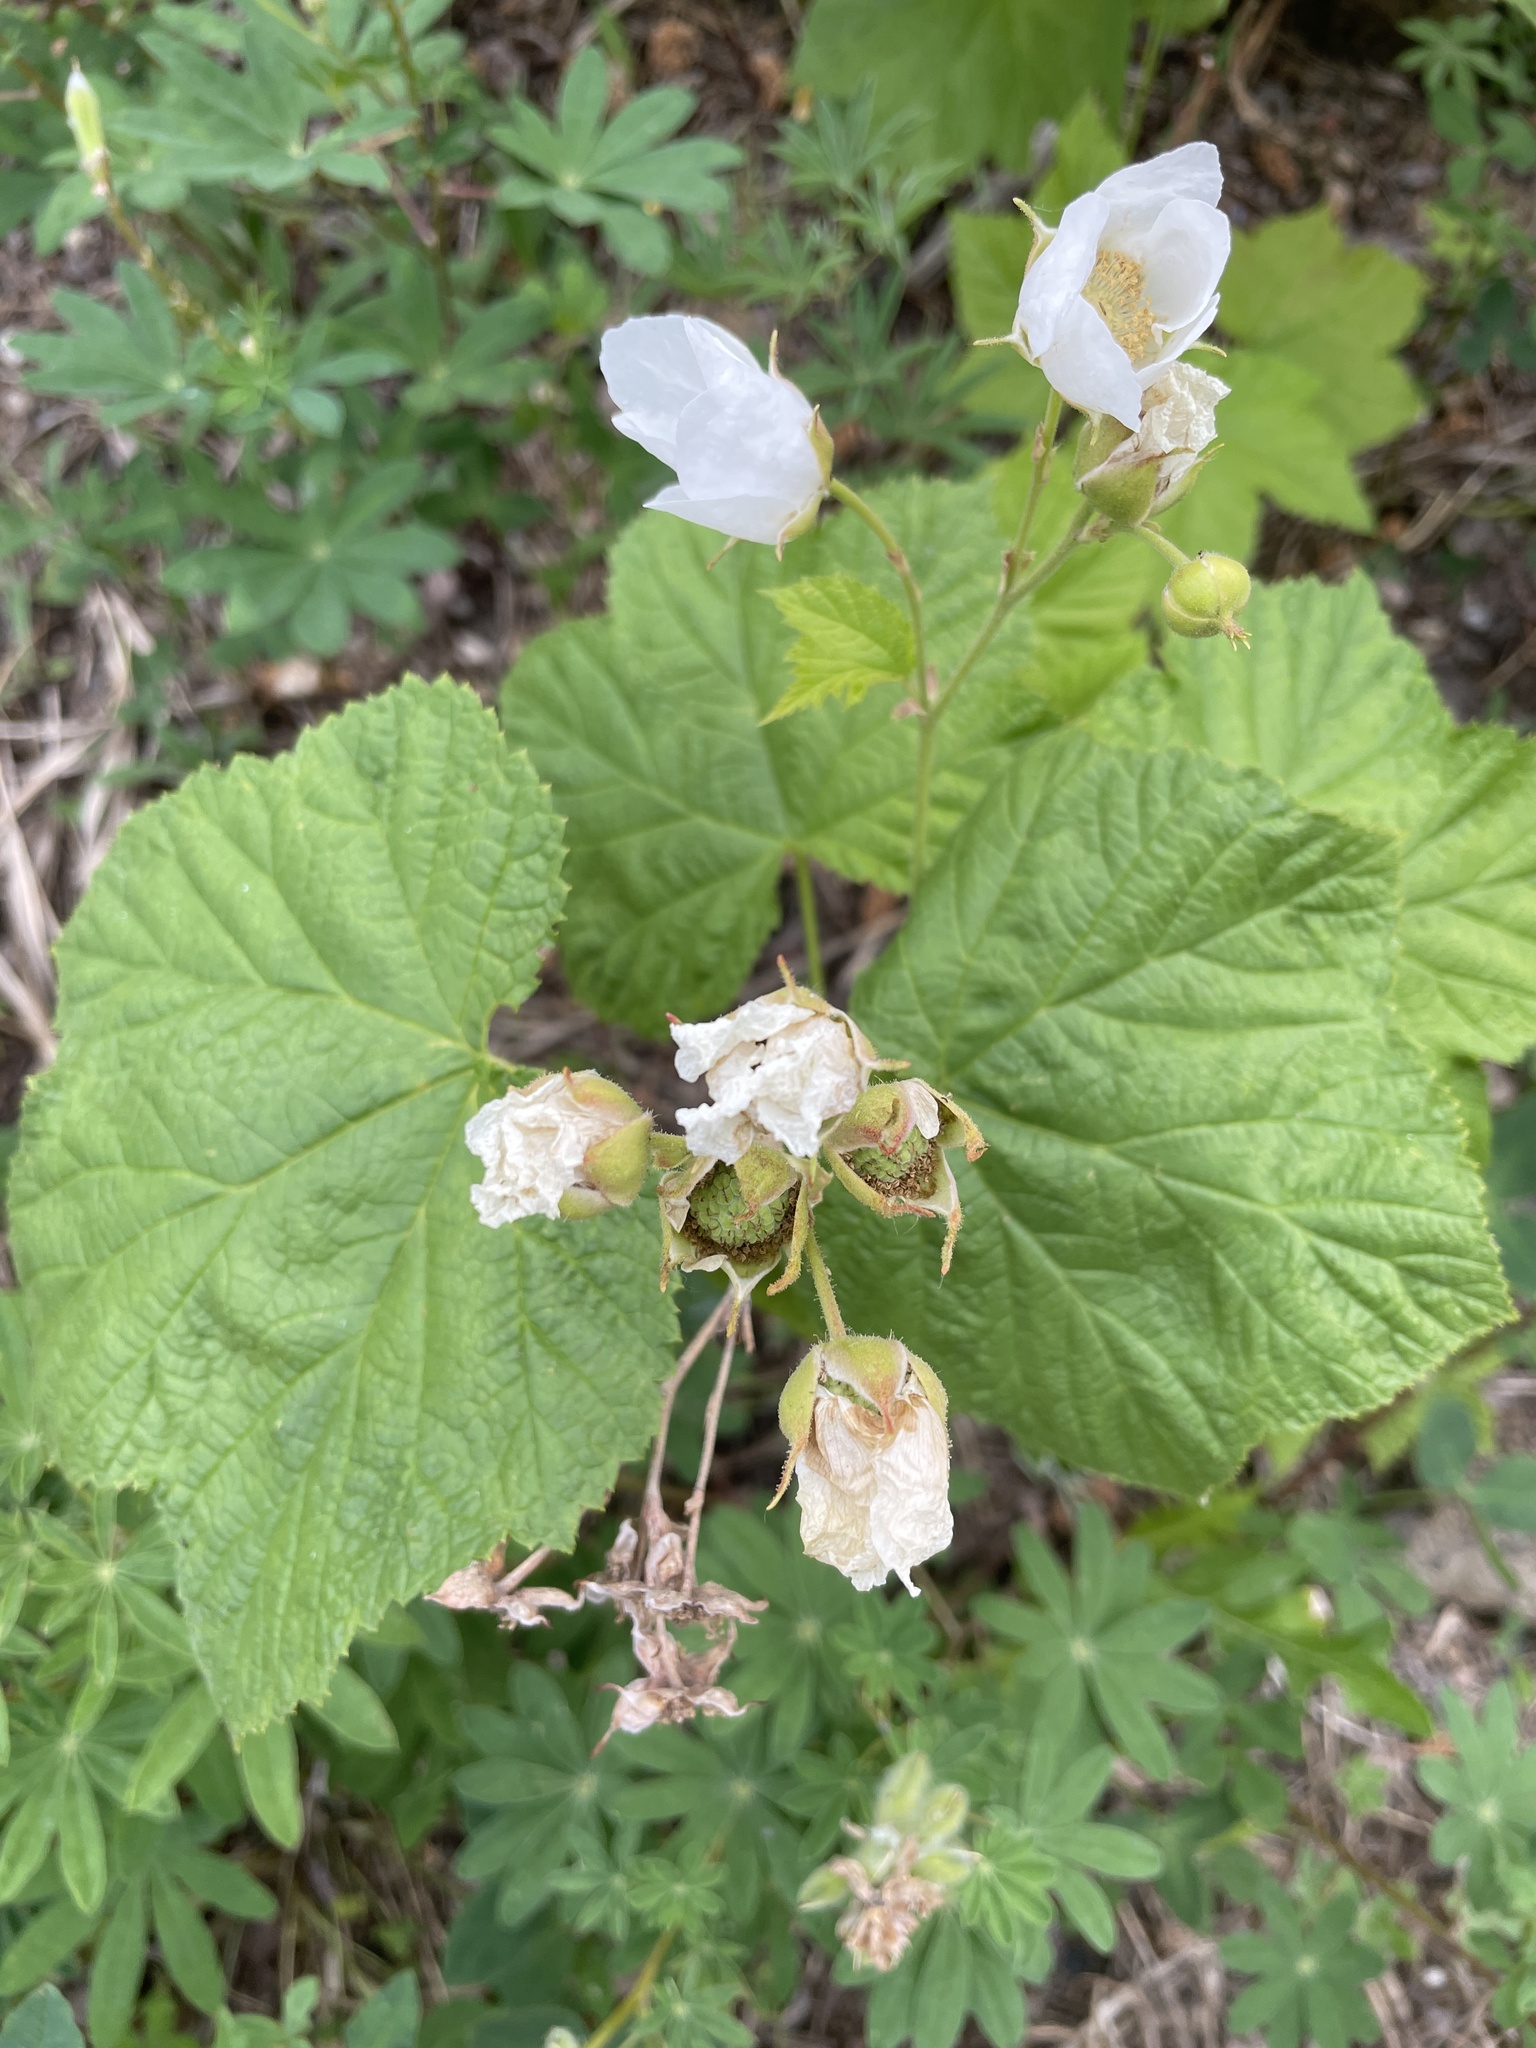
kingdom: Plantae
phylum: Tracheophyta
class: Magnoliopsida
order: Rosales
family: Rosaceae
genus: Rubus
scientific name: Rubus parviflorus
